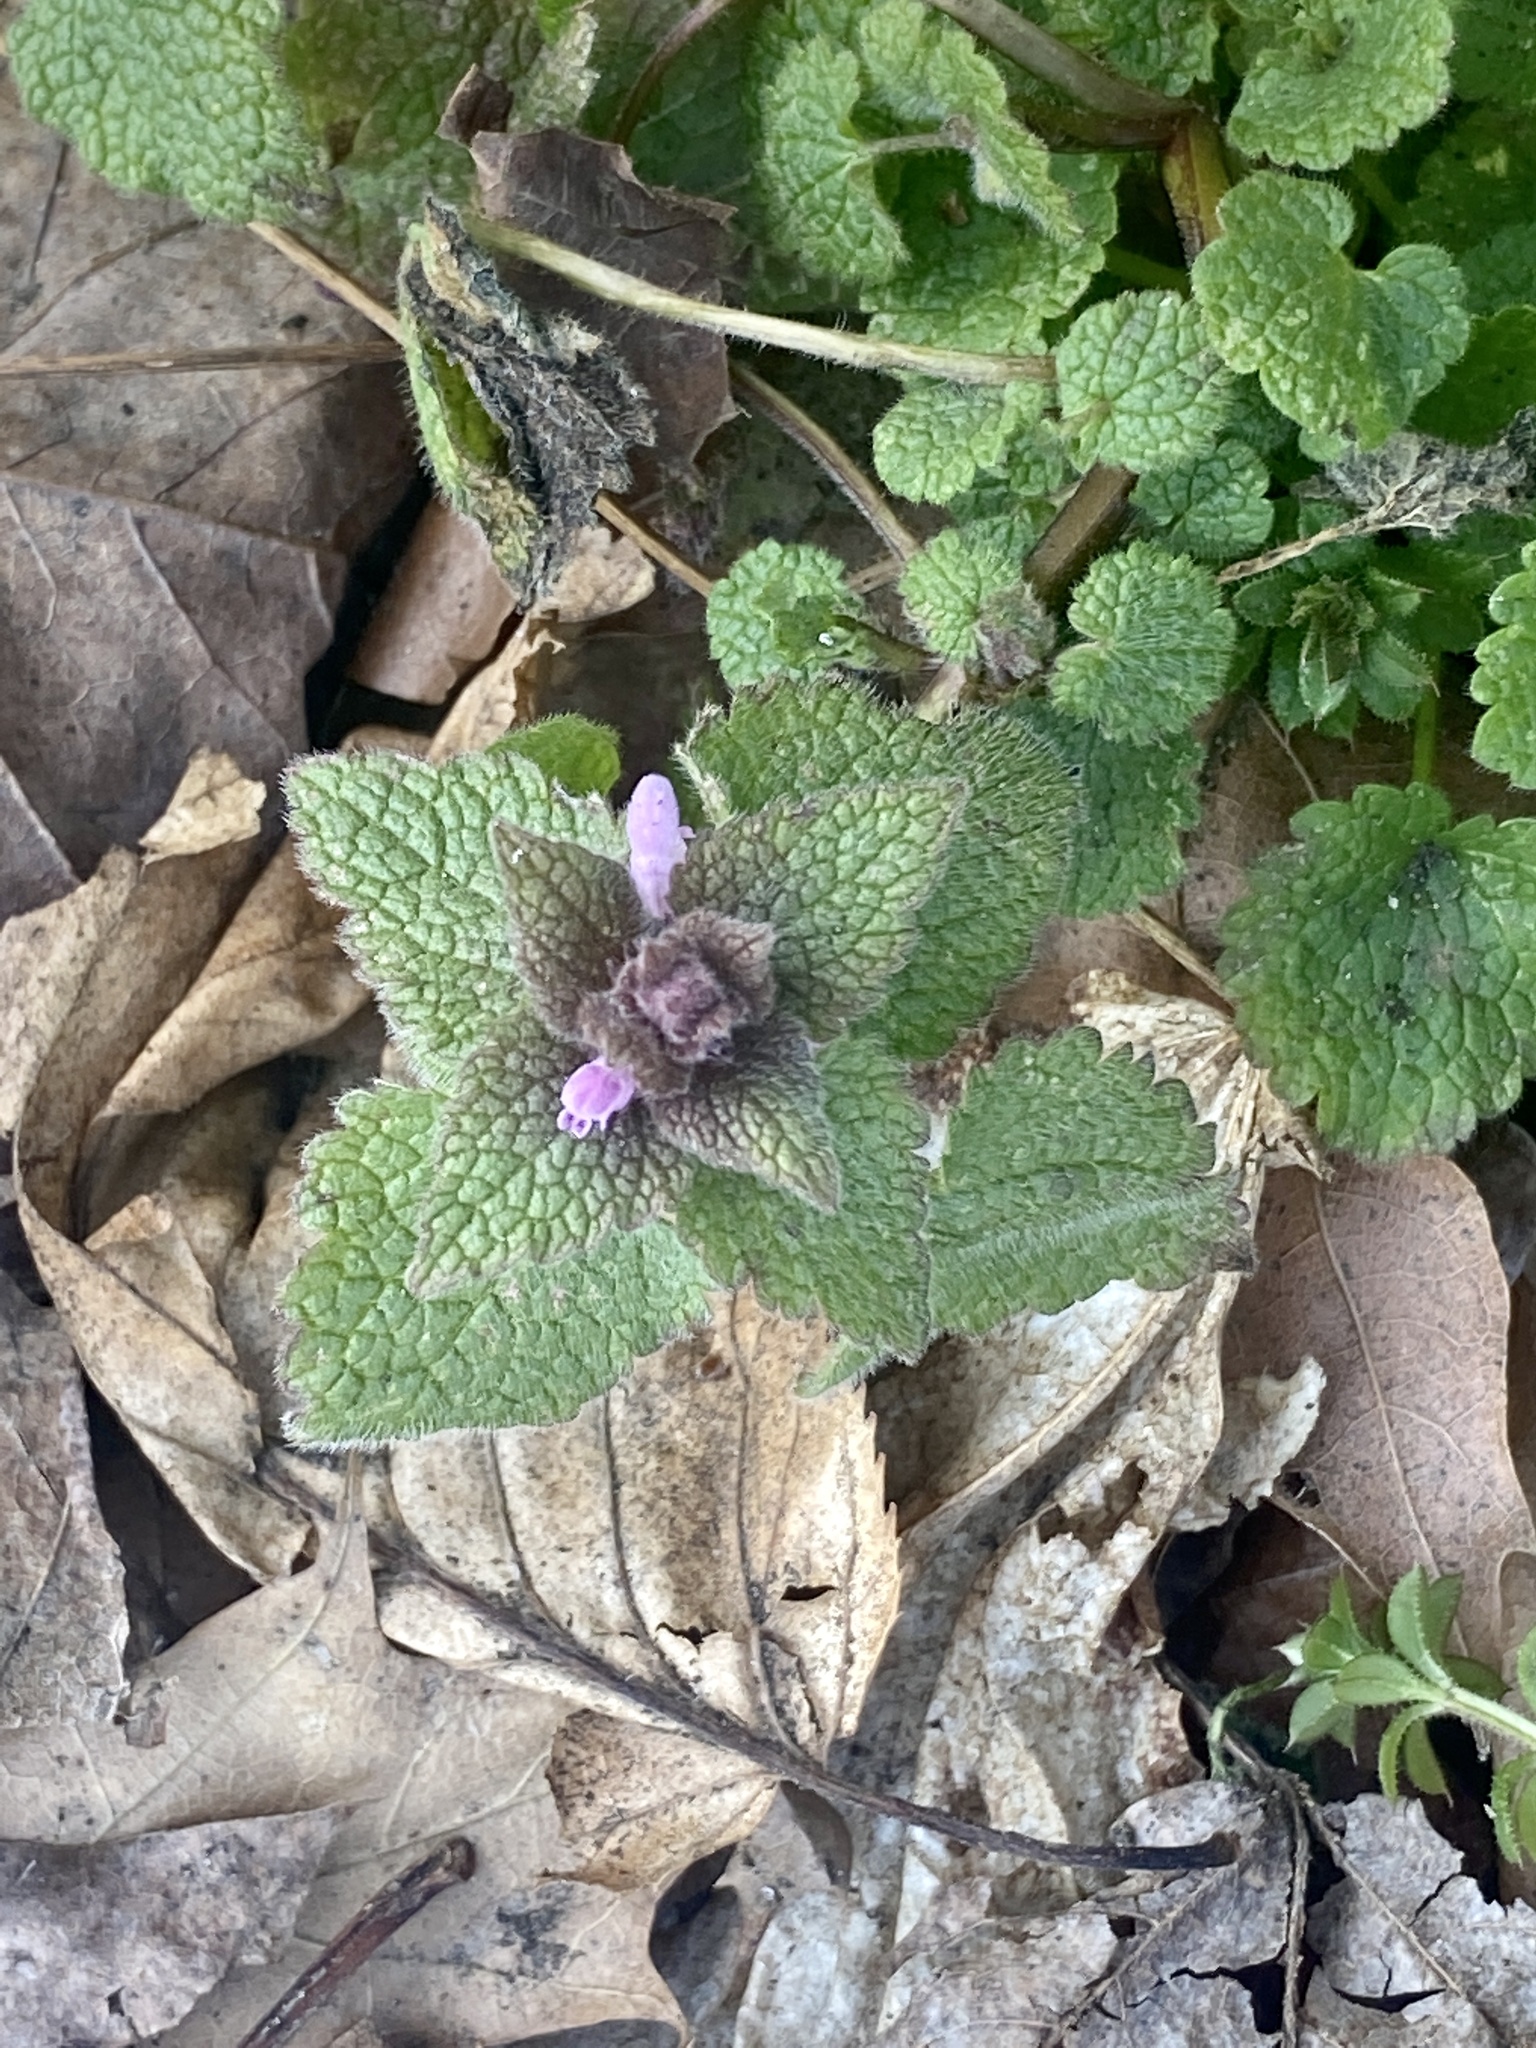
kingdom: Plantae
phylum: Tracheophyta
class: Magnoliopsida
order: Lamiales
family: Lamiaceae
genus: Lamium
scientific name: Lamium purpureum
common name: Red dead-nettle
